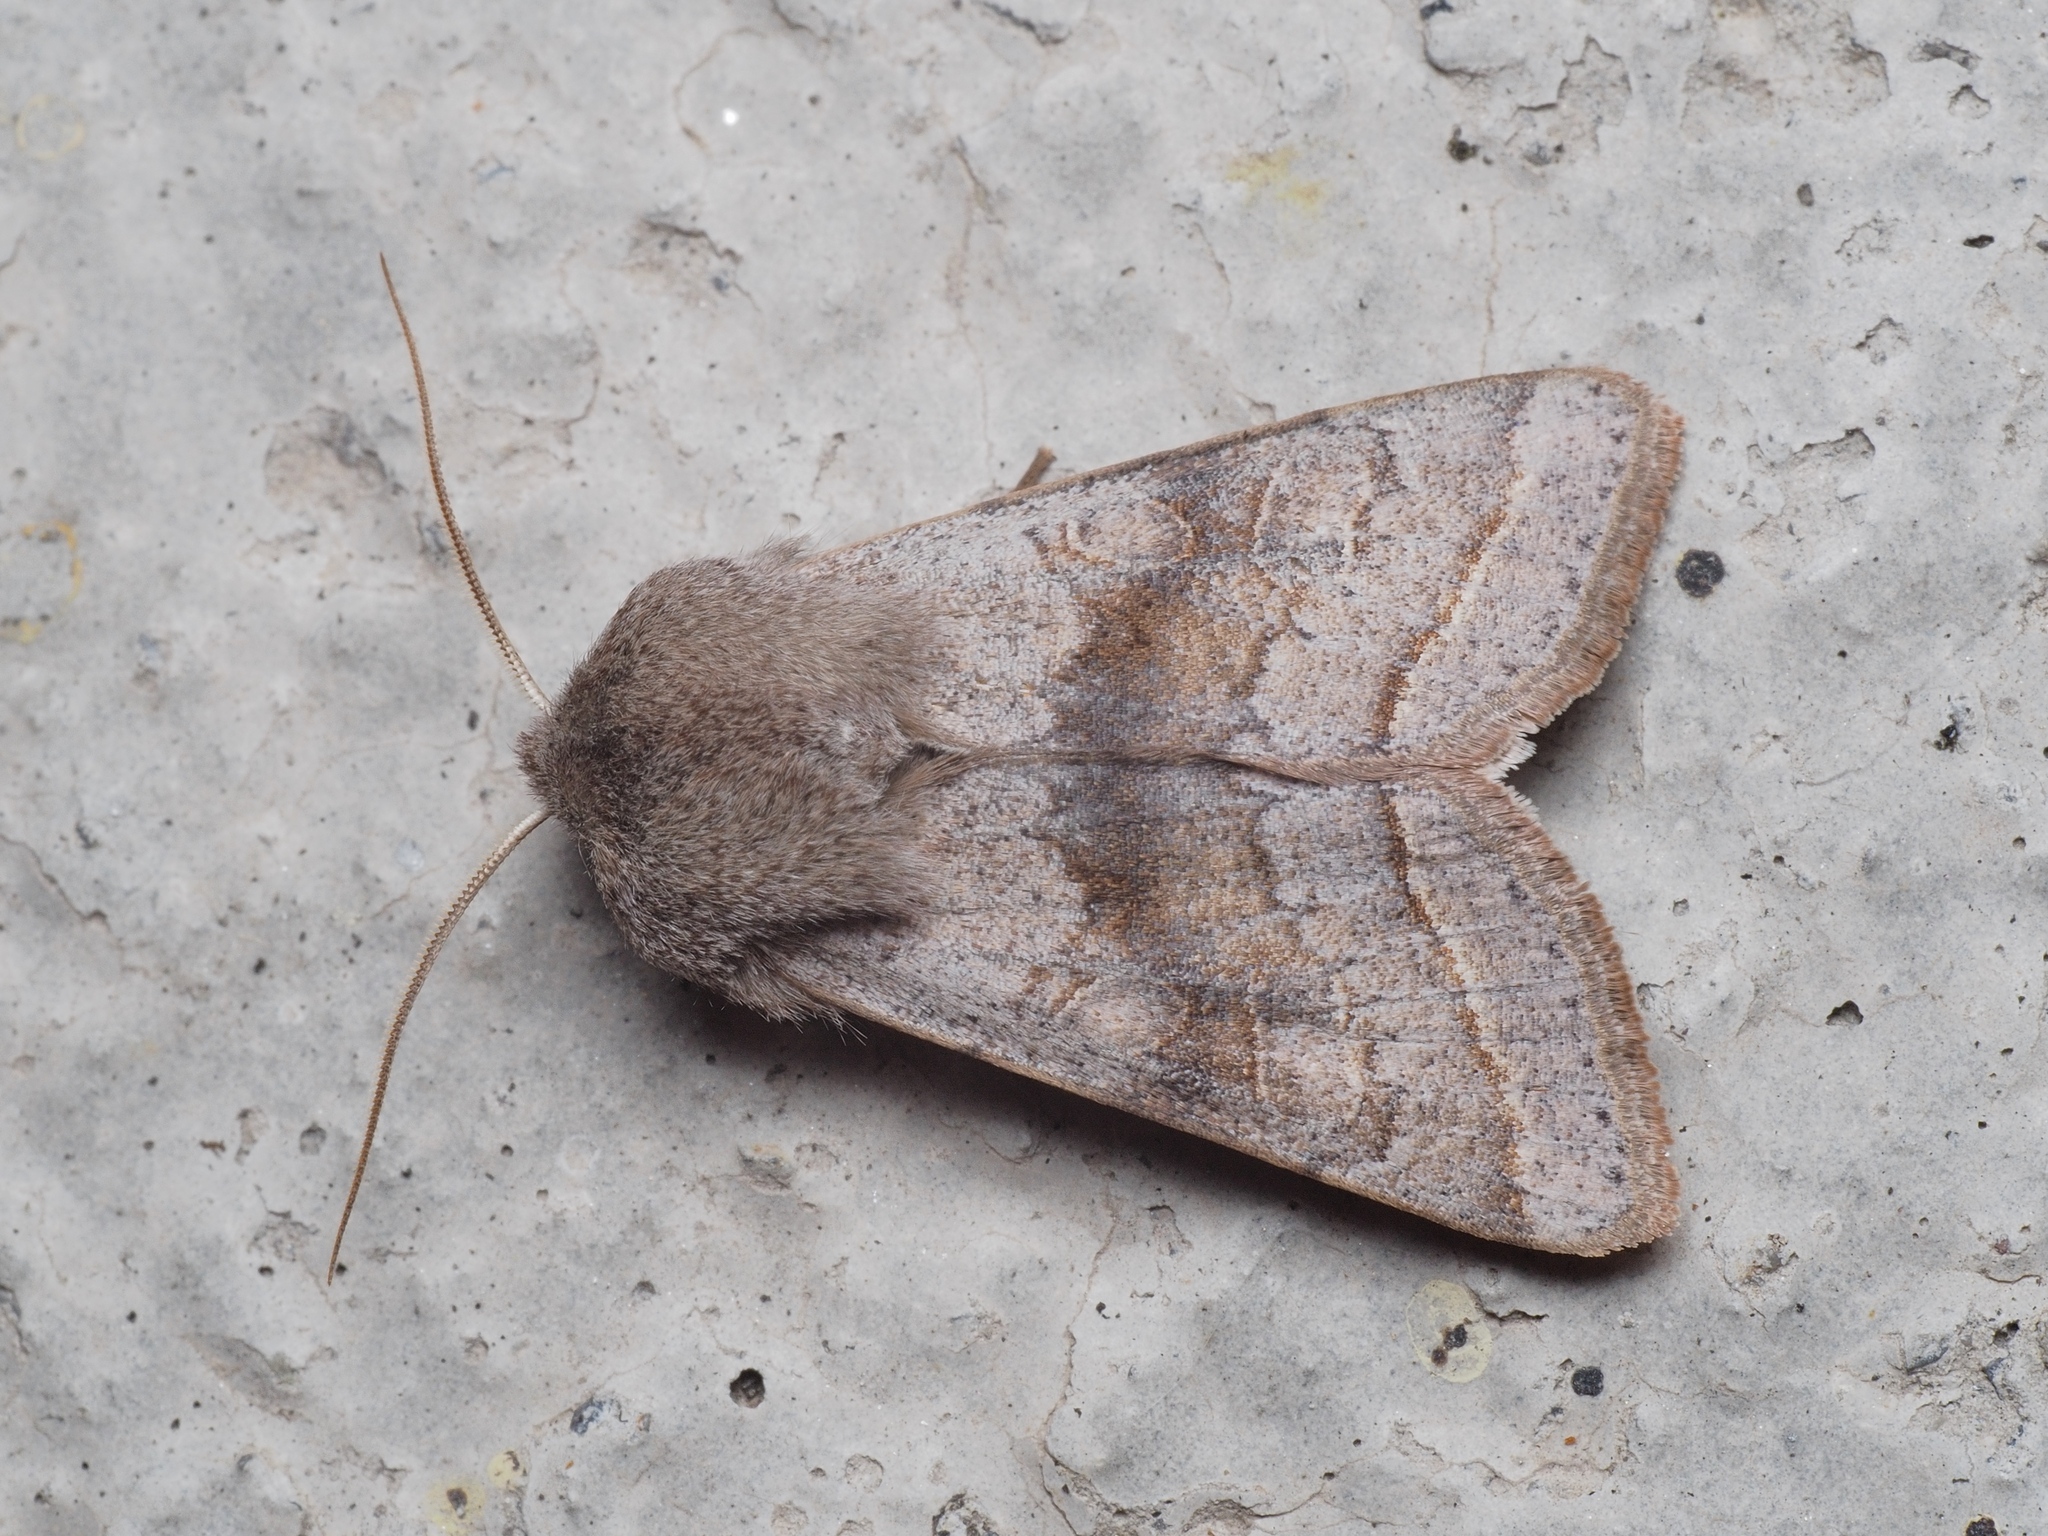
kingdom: Animalia
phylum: Arthropoda
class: Insecta
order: Lepidoptera
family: Noctuidae
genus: Orthosia
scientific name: Orthosia opima
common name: Northern drab
